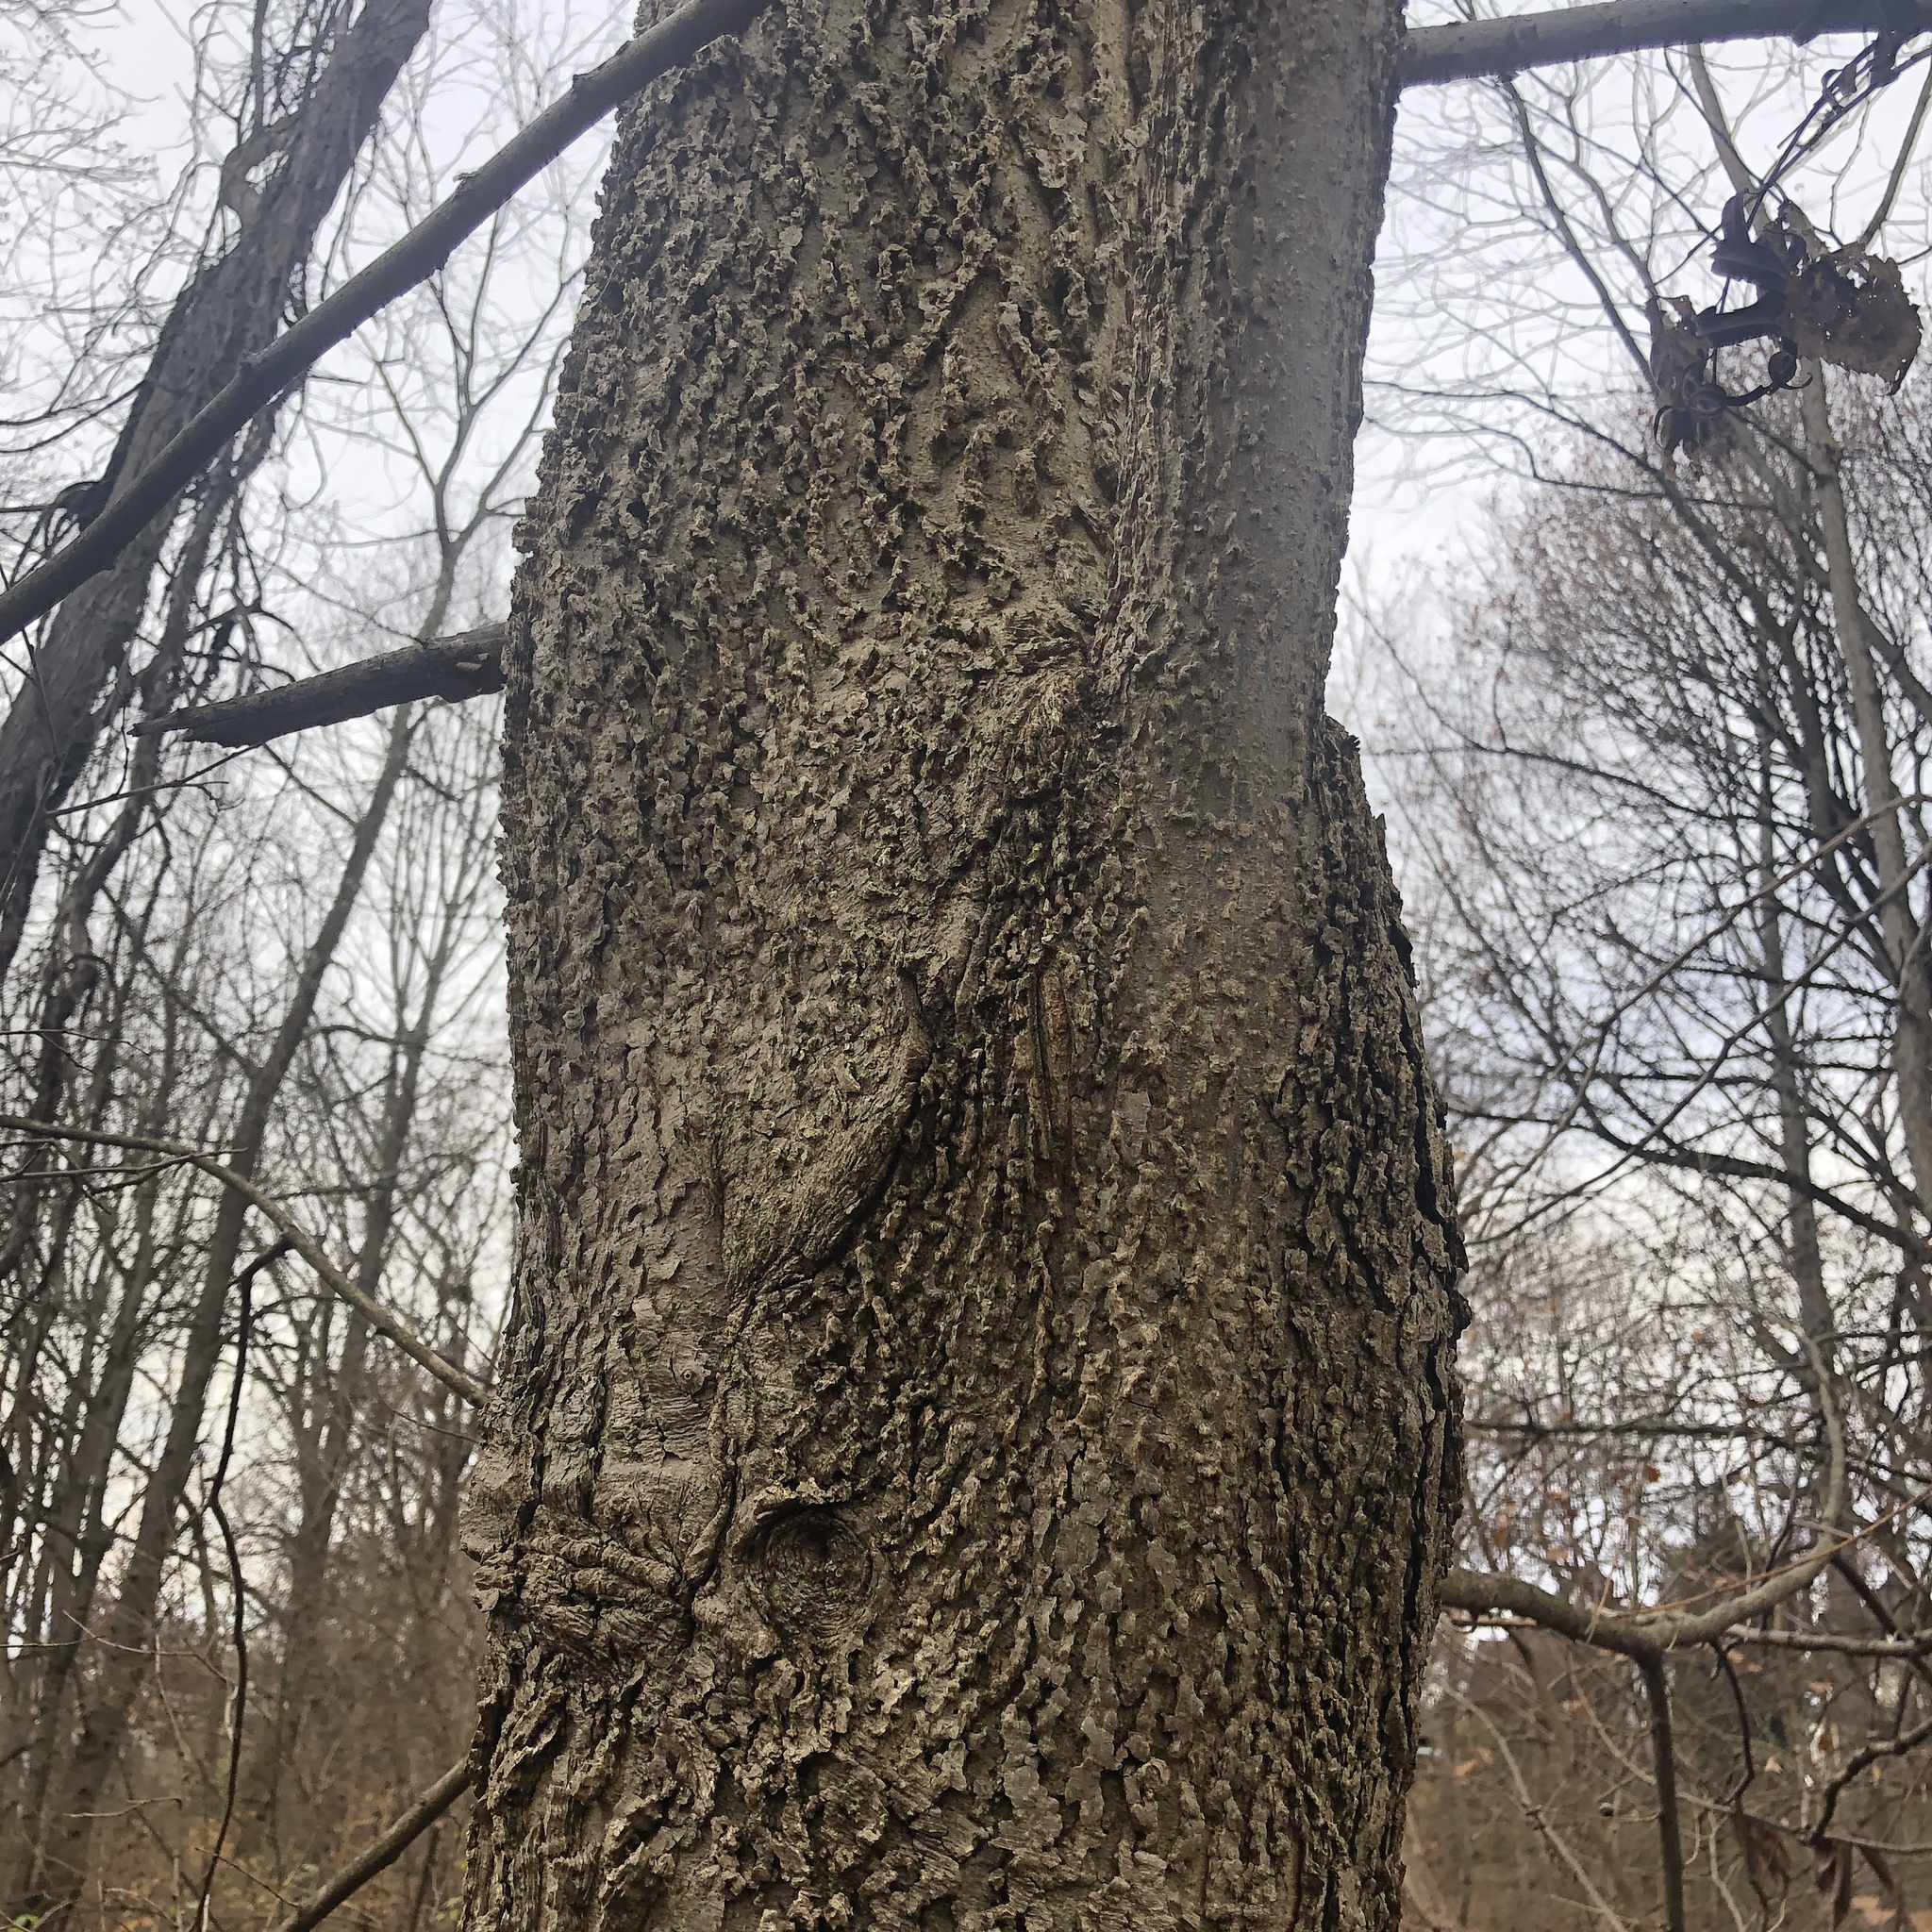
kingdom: Plantae
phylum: Tracheophyta
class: Magnoliopsida
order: Rosales
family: Cannabaceae
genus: Celtis
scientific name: Celtis occidentalis
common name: Common hackberry
